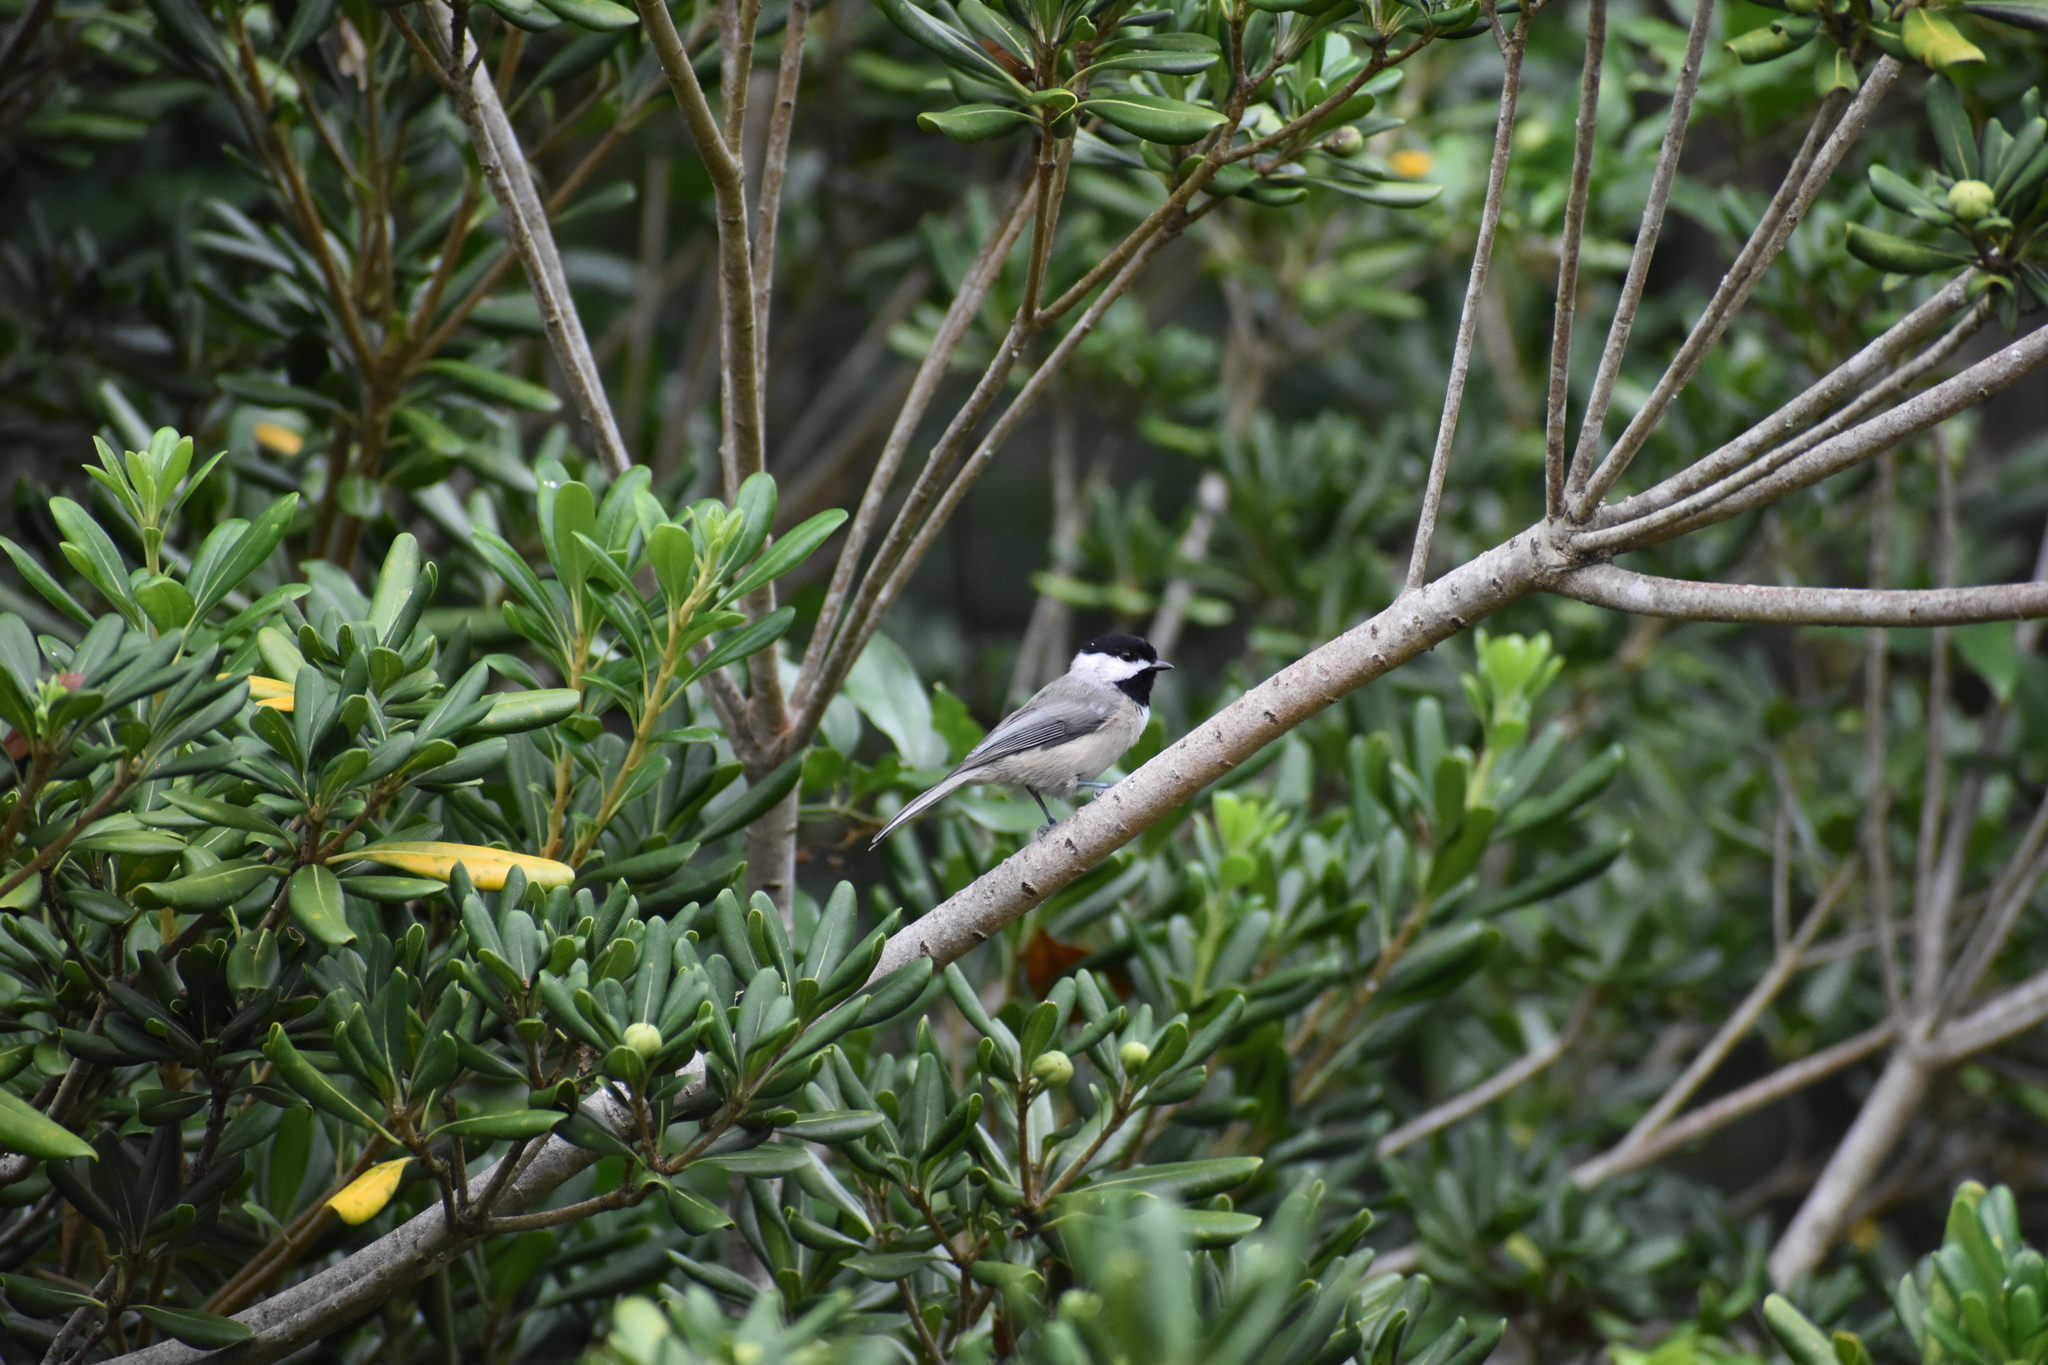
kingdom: Animalia
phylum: Chordata
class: Aves
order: Passeriformes
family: Paridae
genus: Poecile
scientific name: Poecile carolinensis
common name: Carolina chickadee
